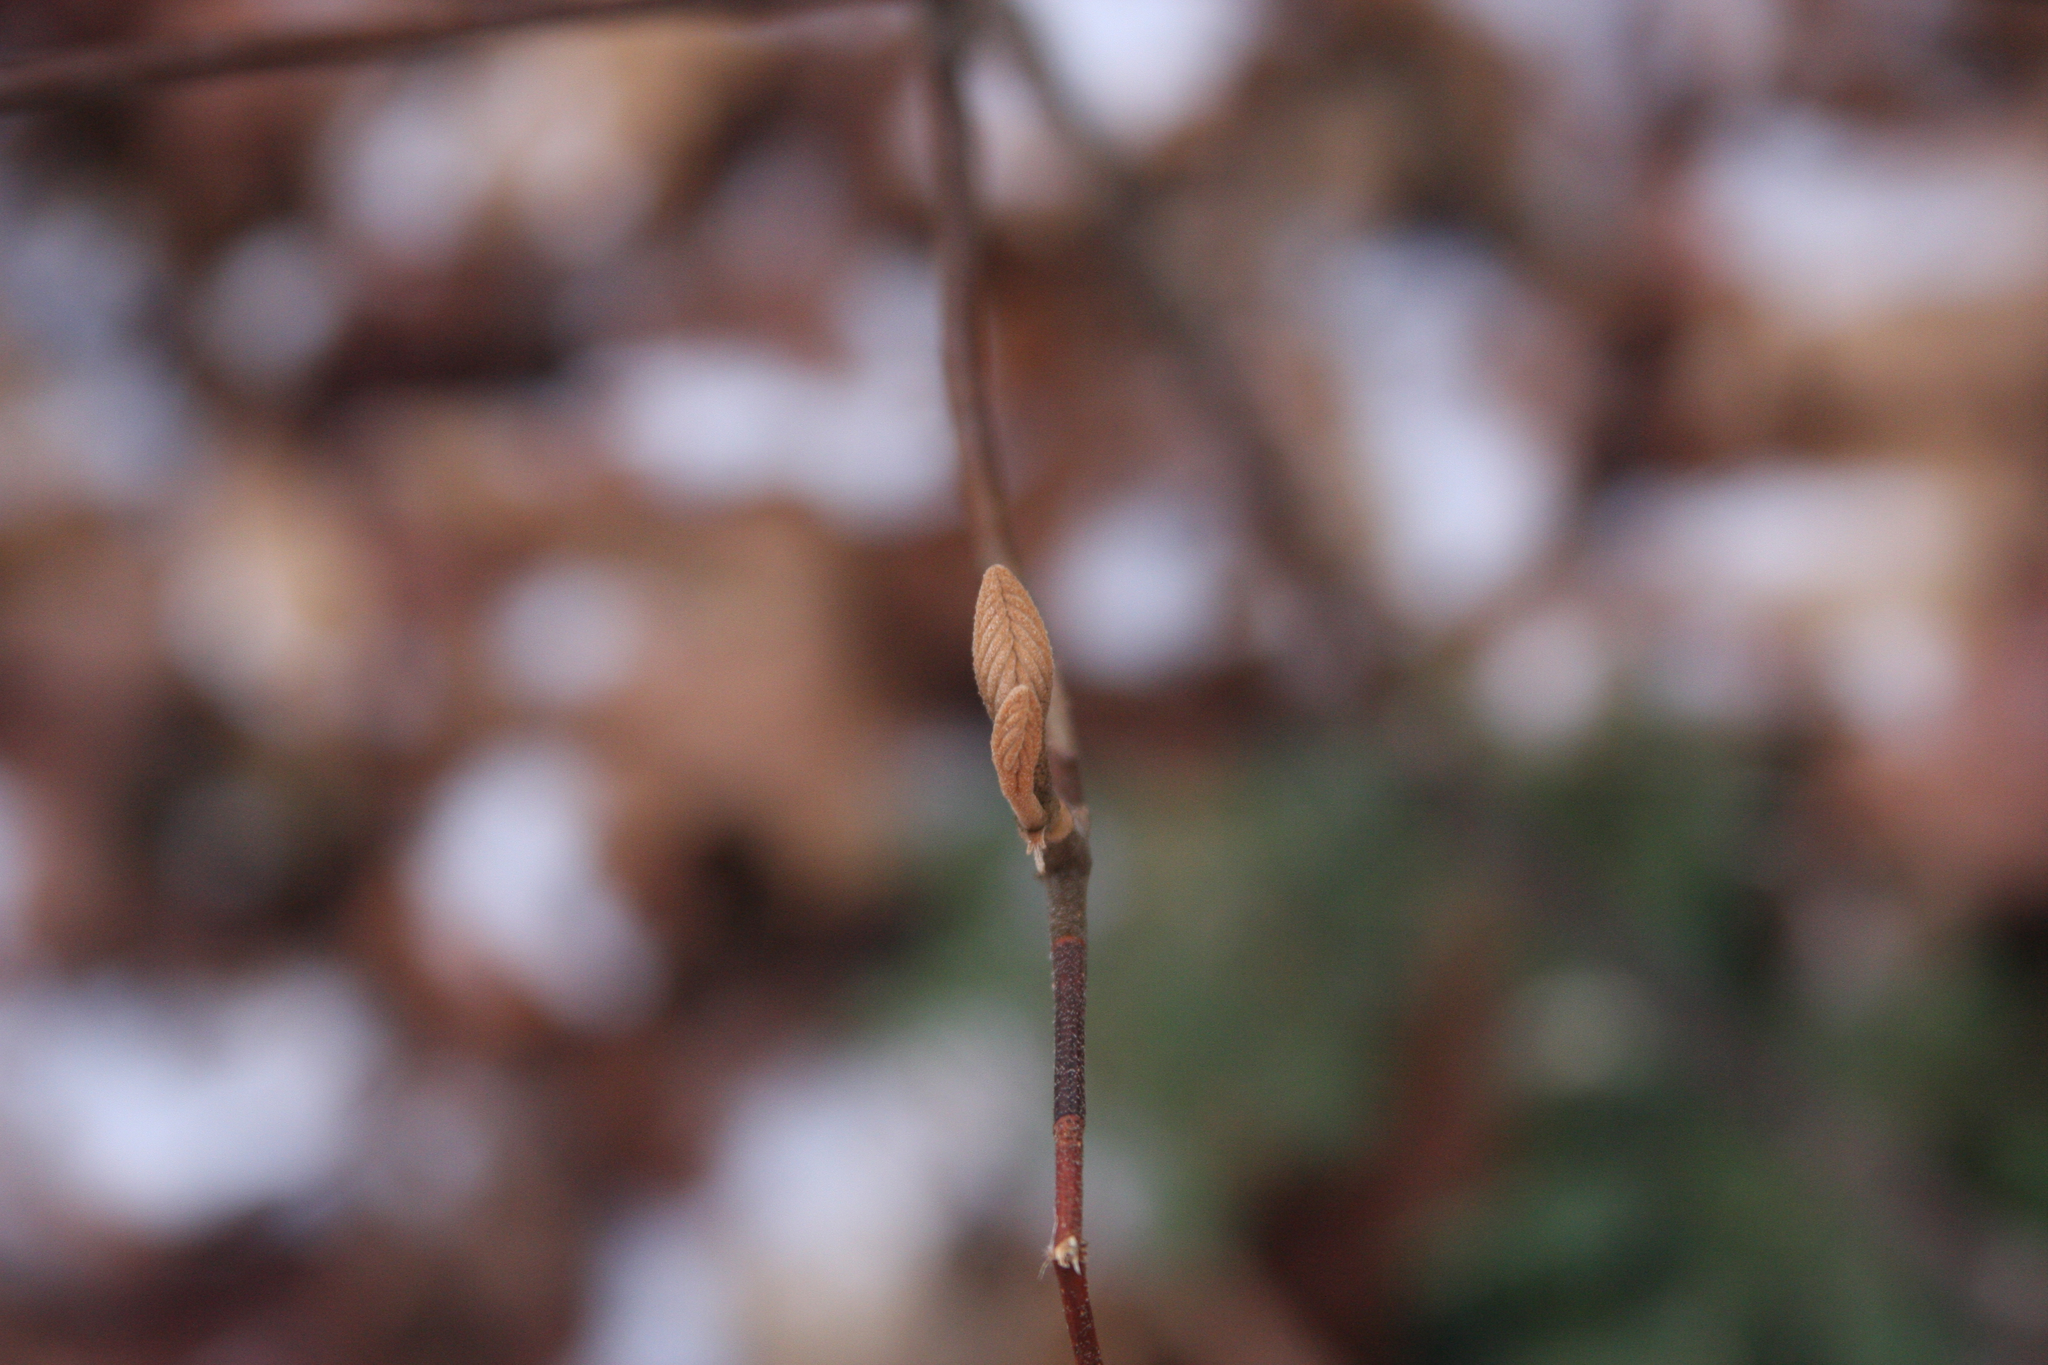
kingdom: Plantae
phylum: Tracheophyta
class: Magnoliopsida
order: Dipsacales
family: Viburnaceae
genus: Viburnum
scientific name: Viburnum lantanoides
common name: Hobblebush
